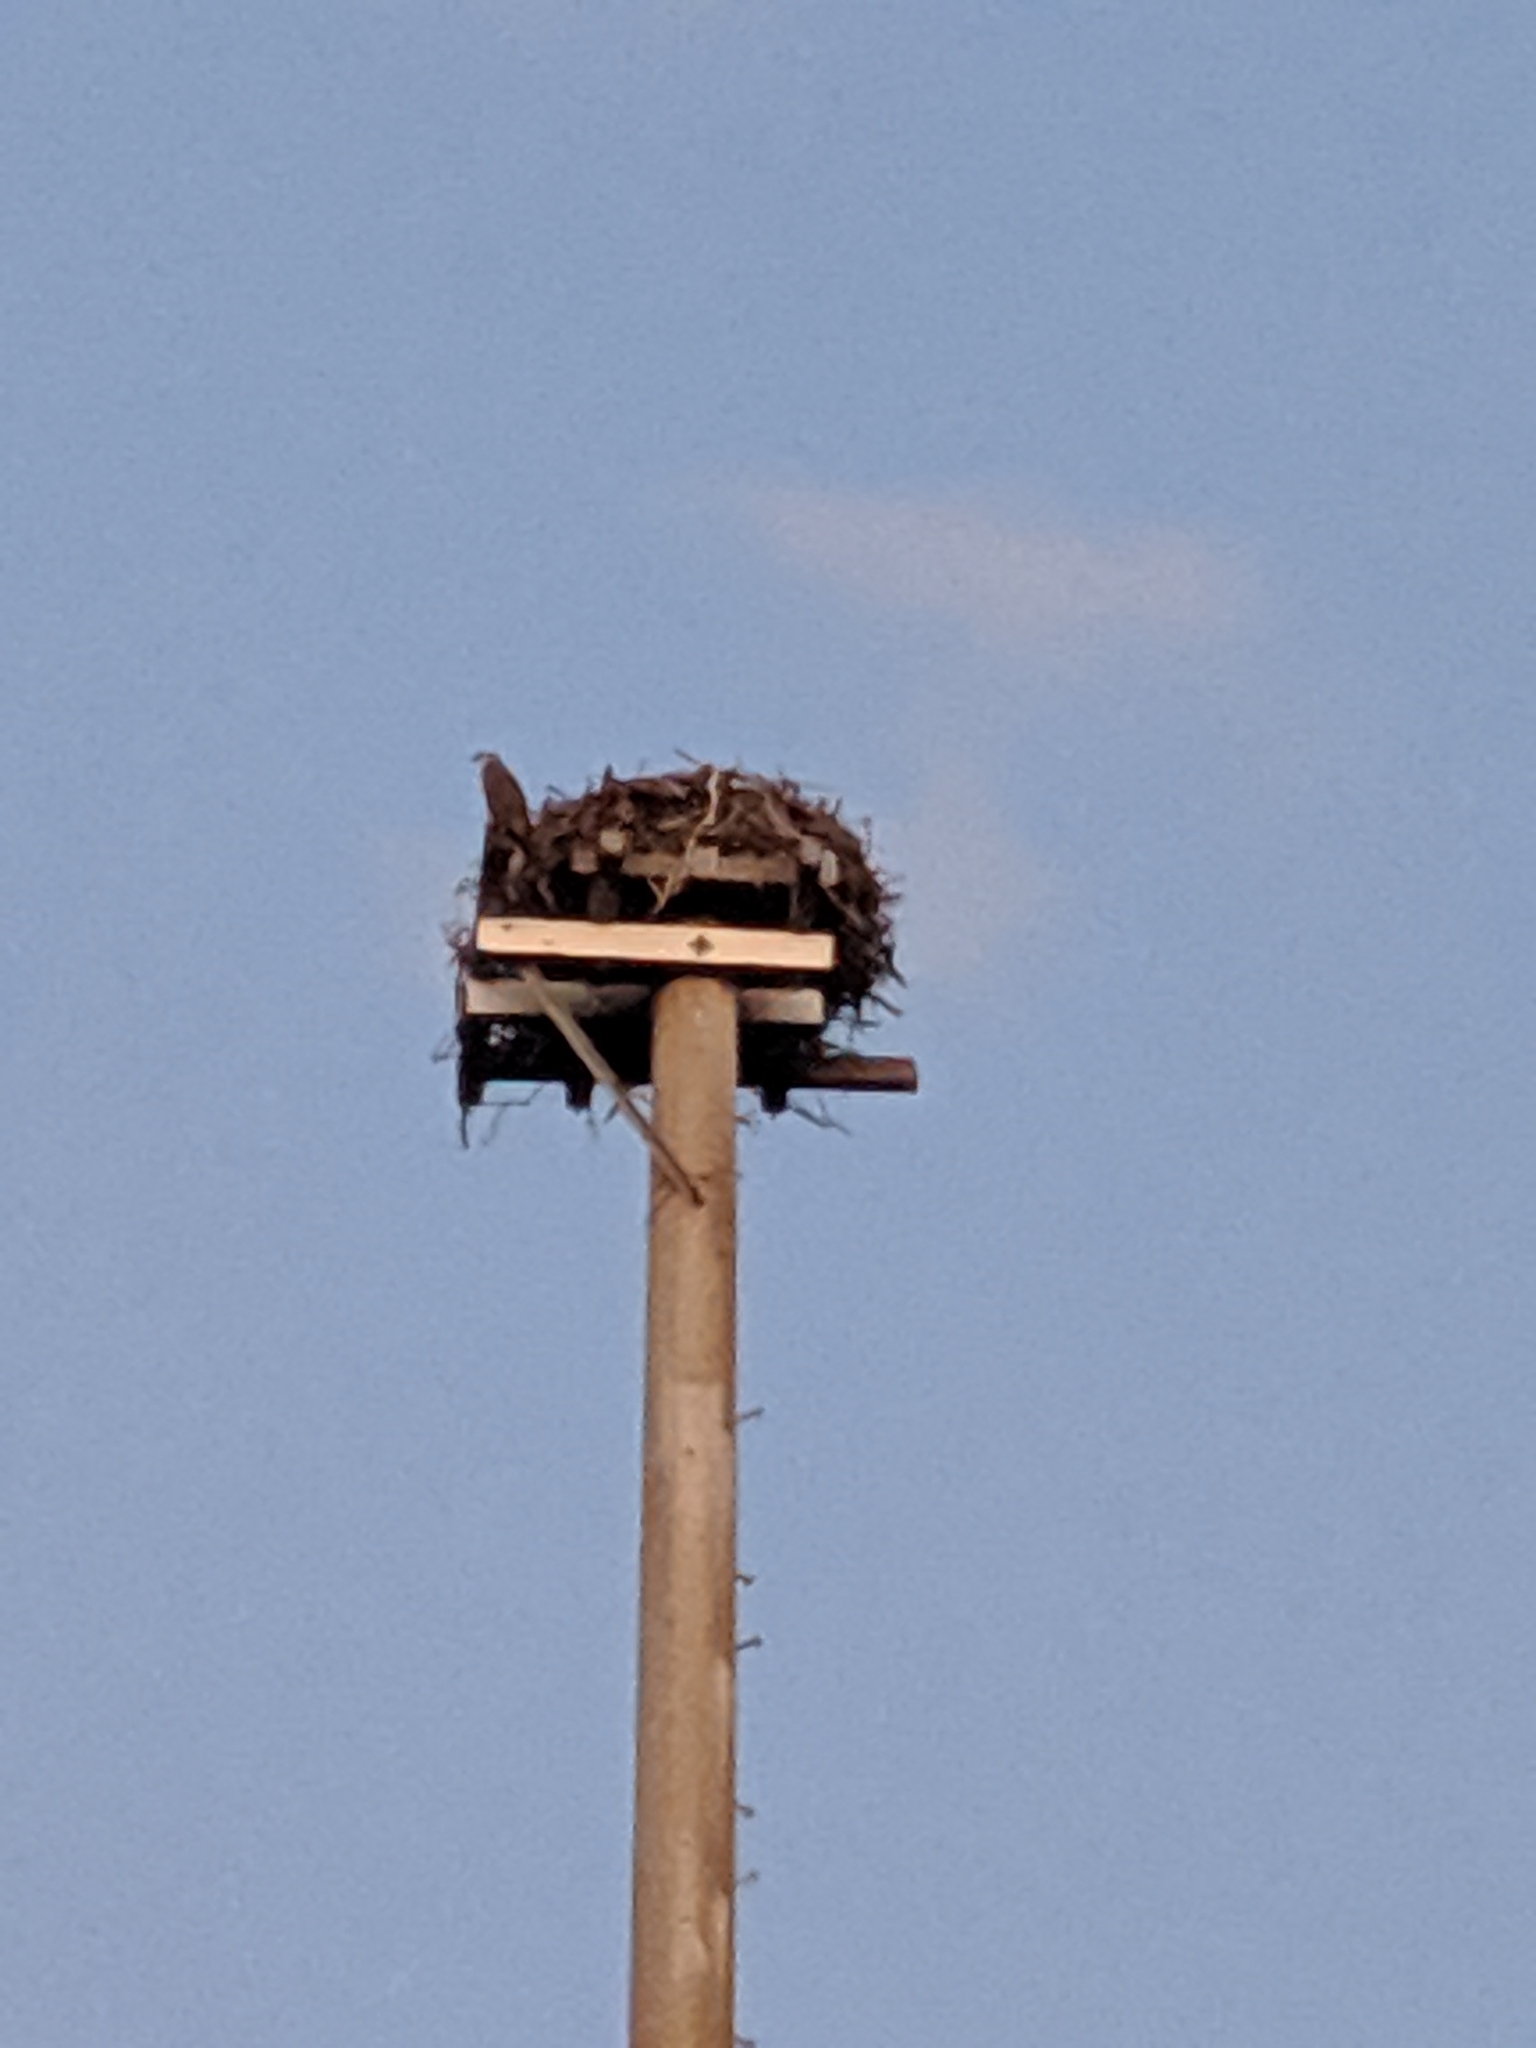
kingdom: Animalia
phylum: Chordata
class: Aves
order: Accipitriformes
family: Pandionidae
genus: Pandion
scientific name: Pandion cristatus
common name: Eastern osprey
